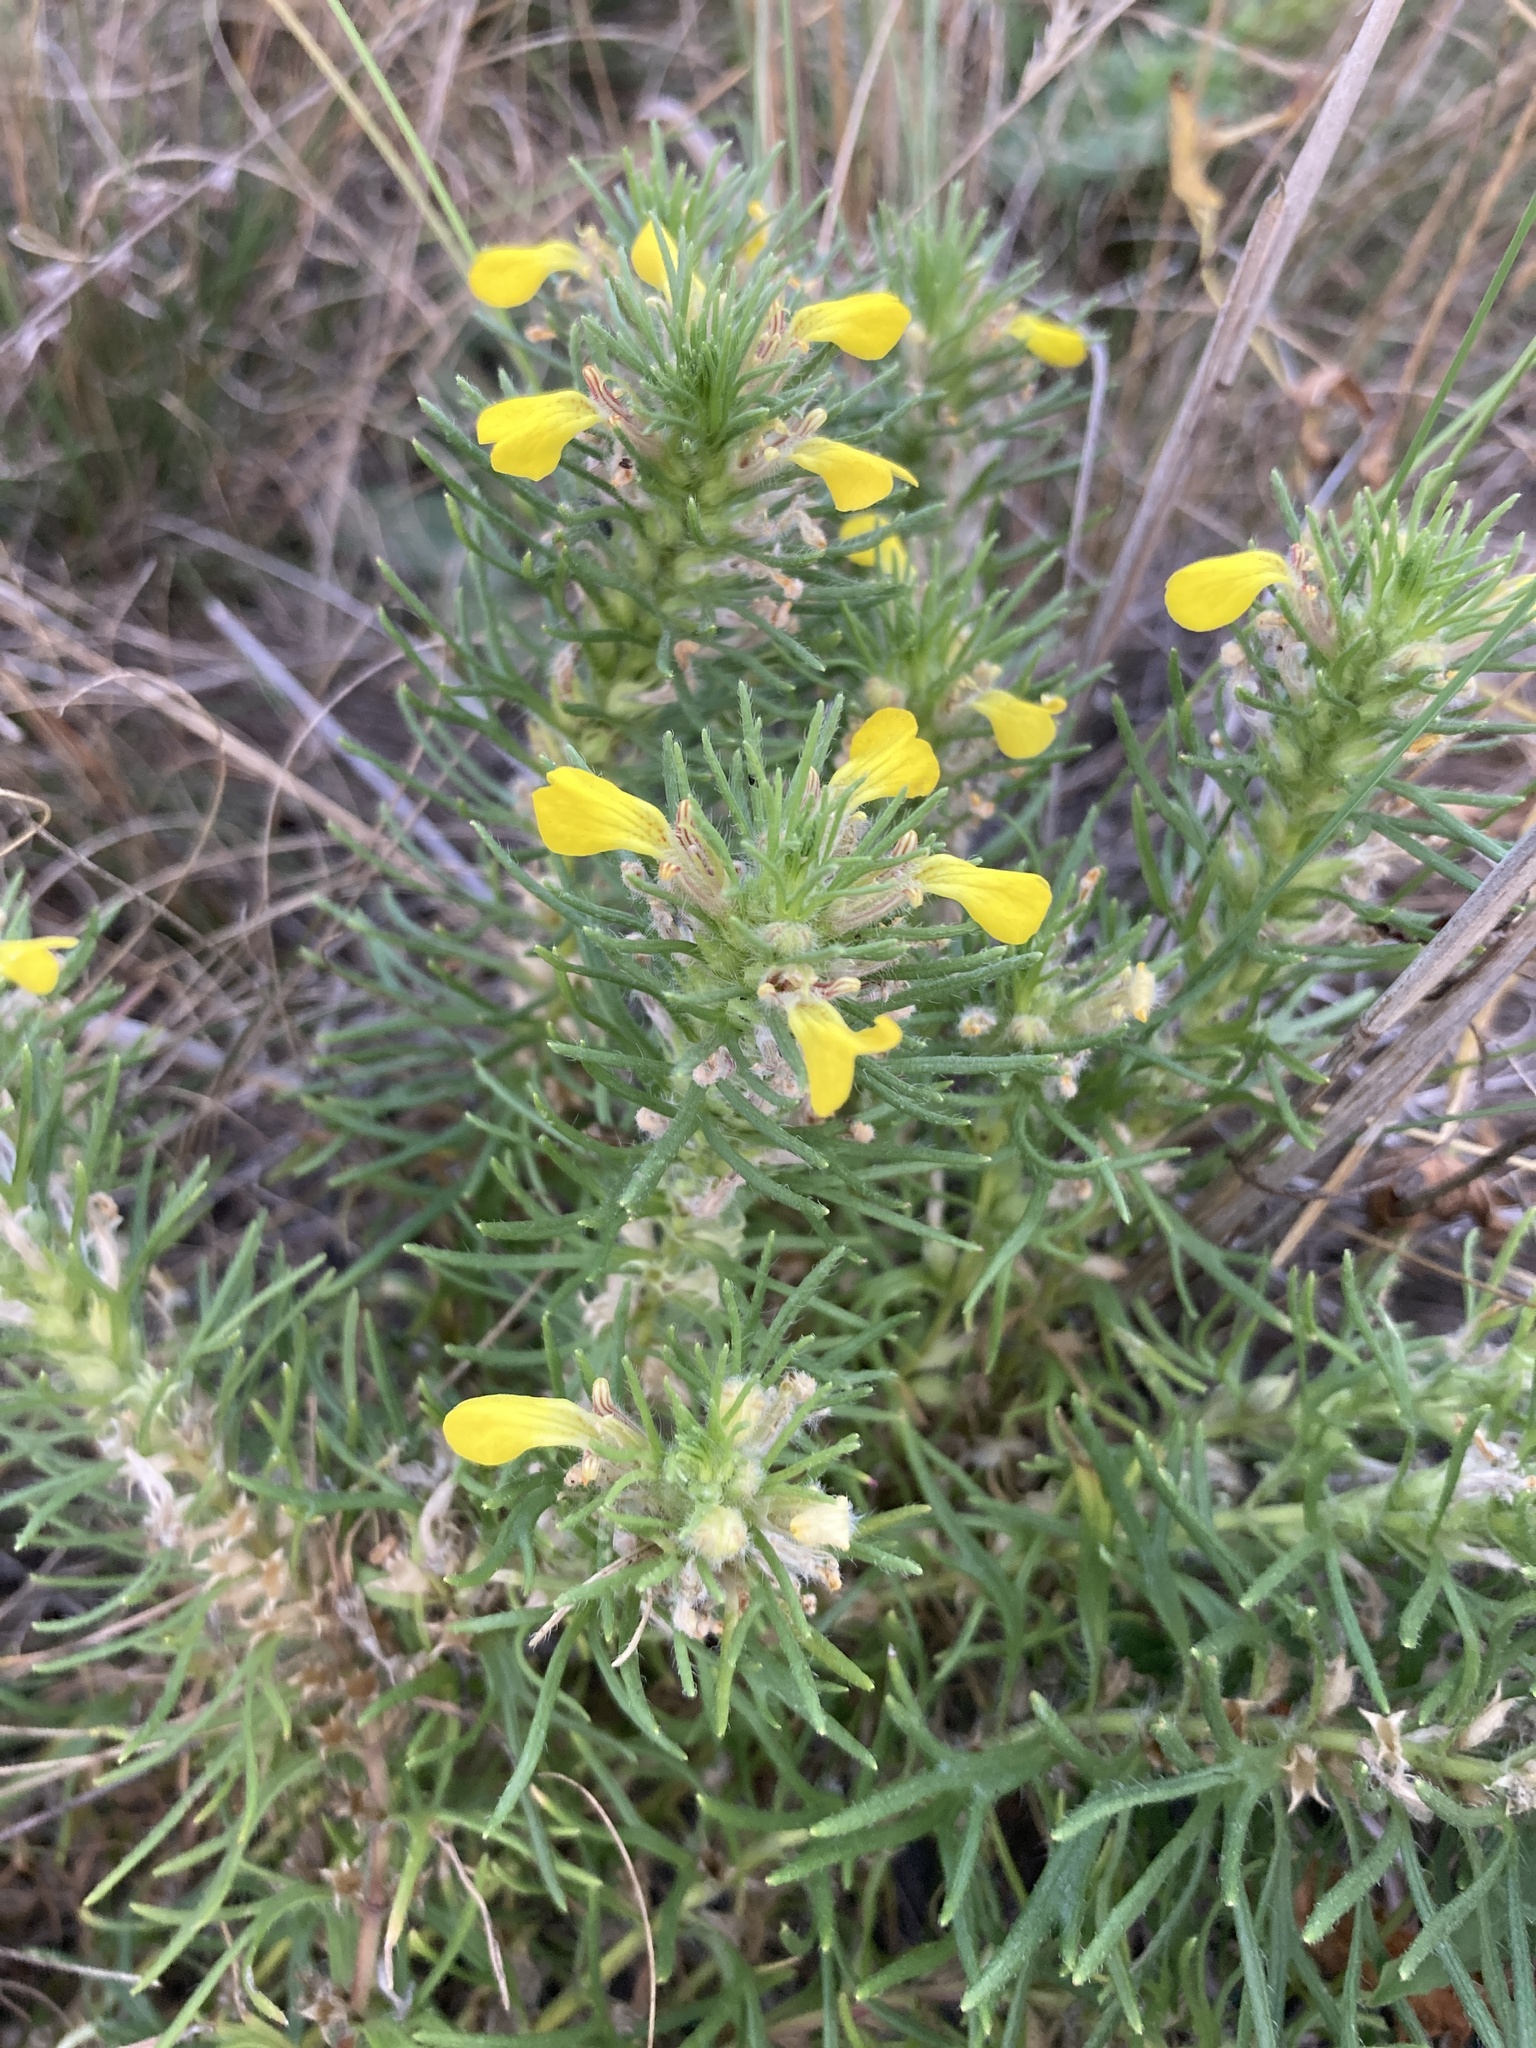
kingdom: Plantae
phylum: Tracheophyta
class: Magnoliopsida
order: Lamiales
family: Lamiaceae
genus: Ajuga
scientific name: Ajuga chamaepitys
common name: Ground-pine
